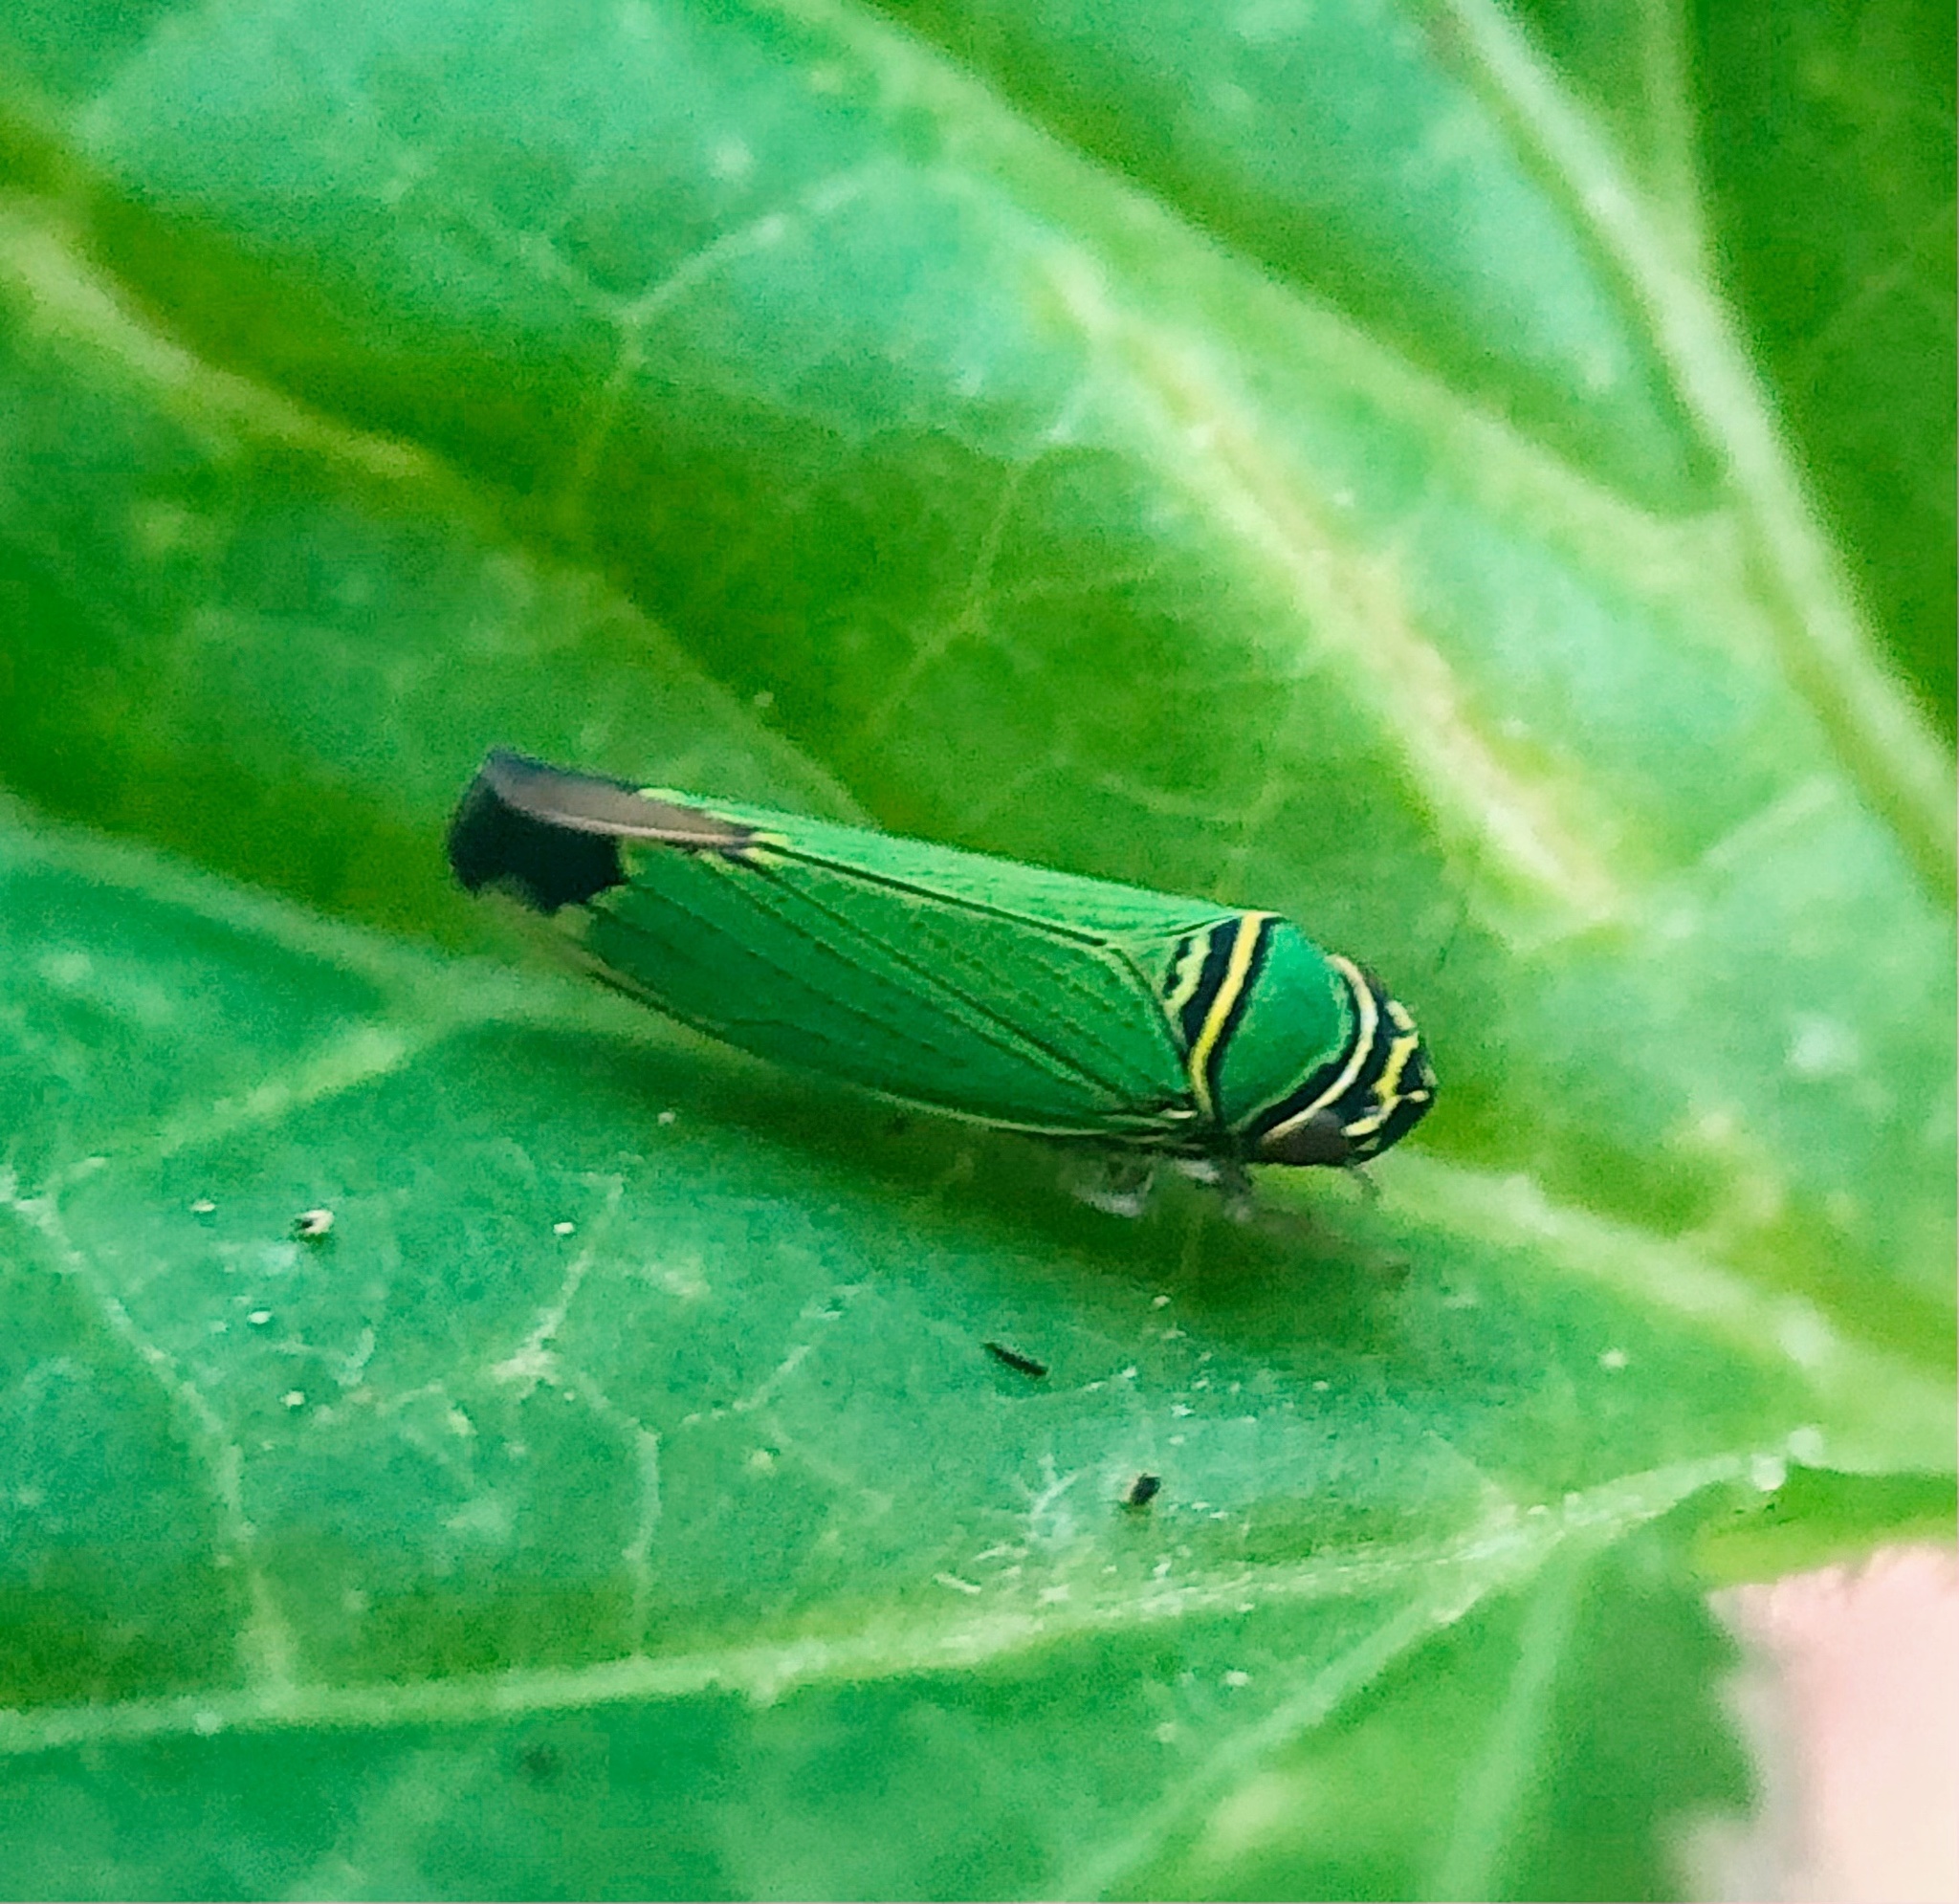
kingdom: Animalia
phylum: Arthropoda
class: Insecta
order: Hemiptera
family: Cicadellidae
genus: Tylozygus
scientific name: Tylozygus geometricus
